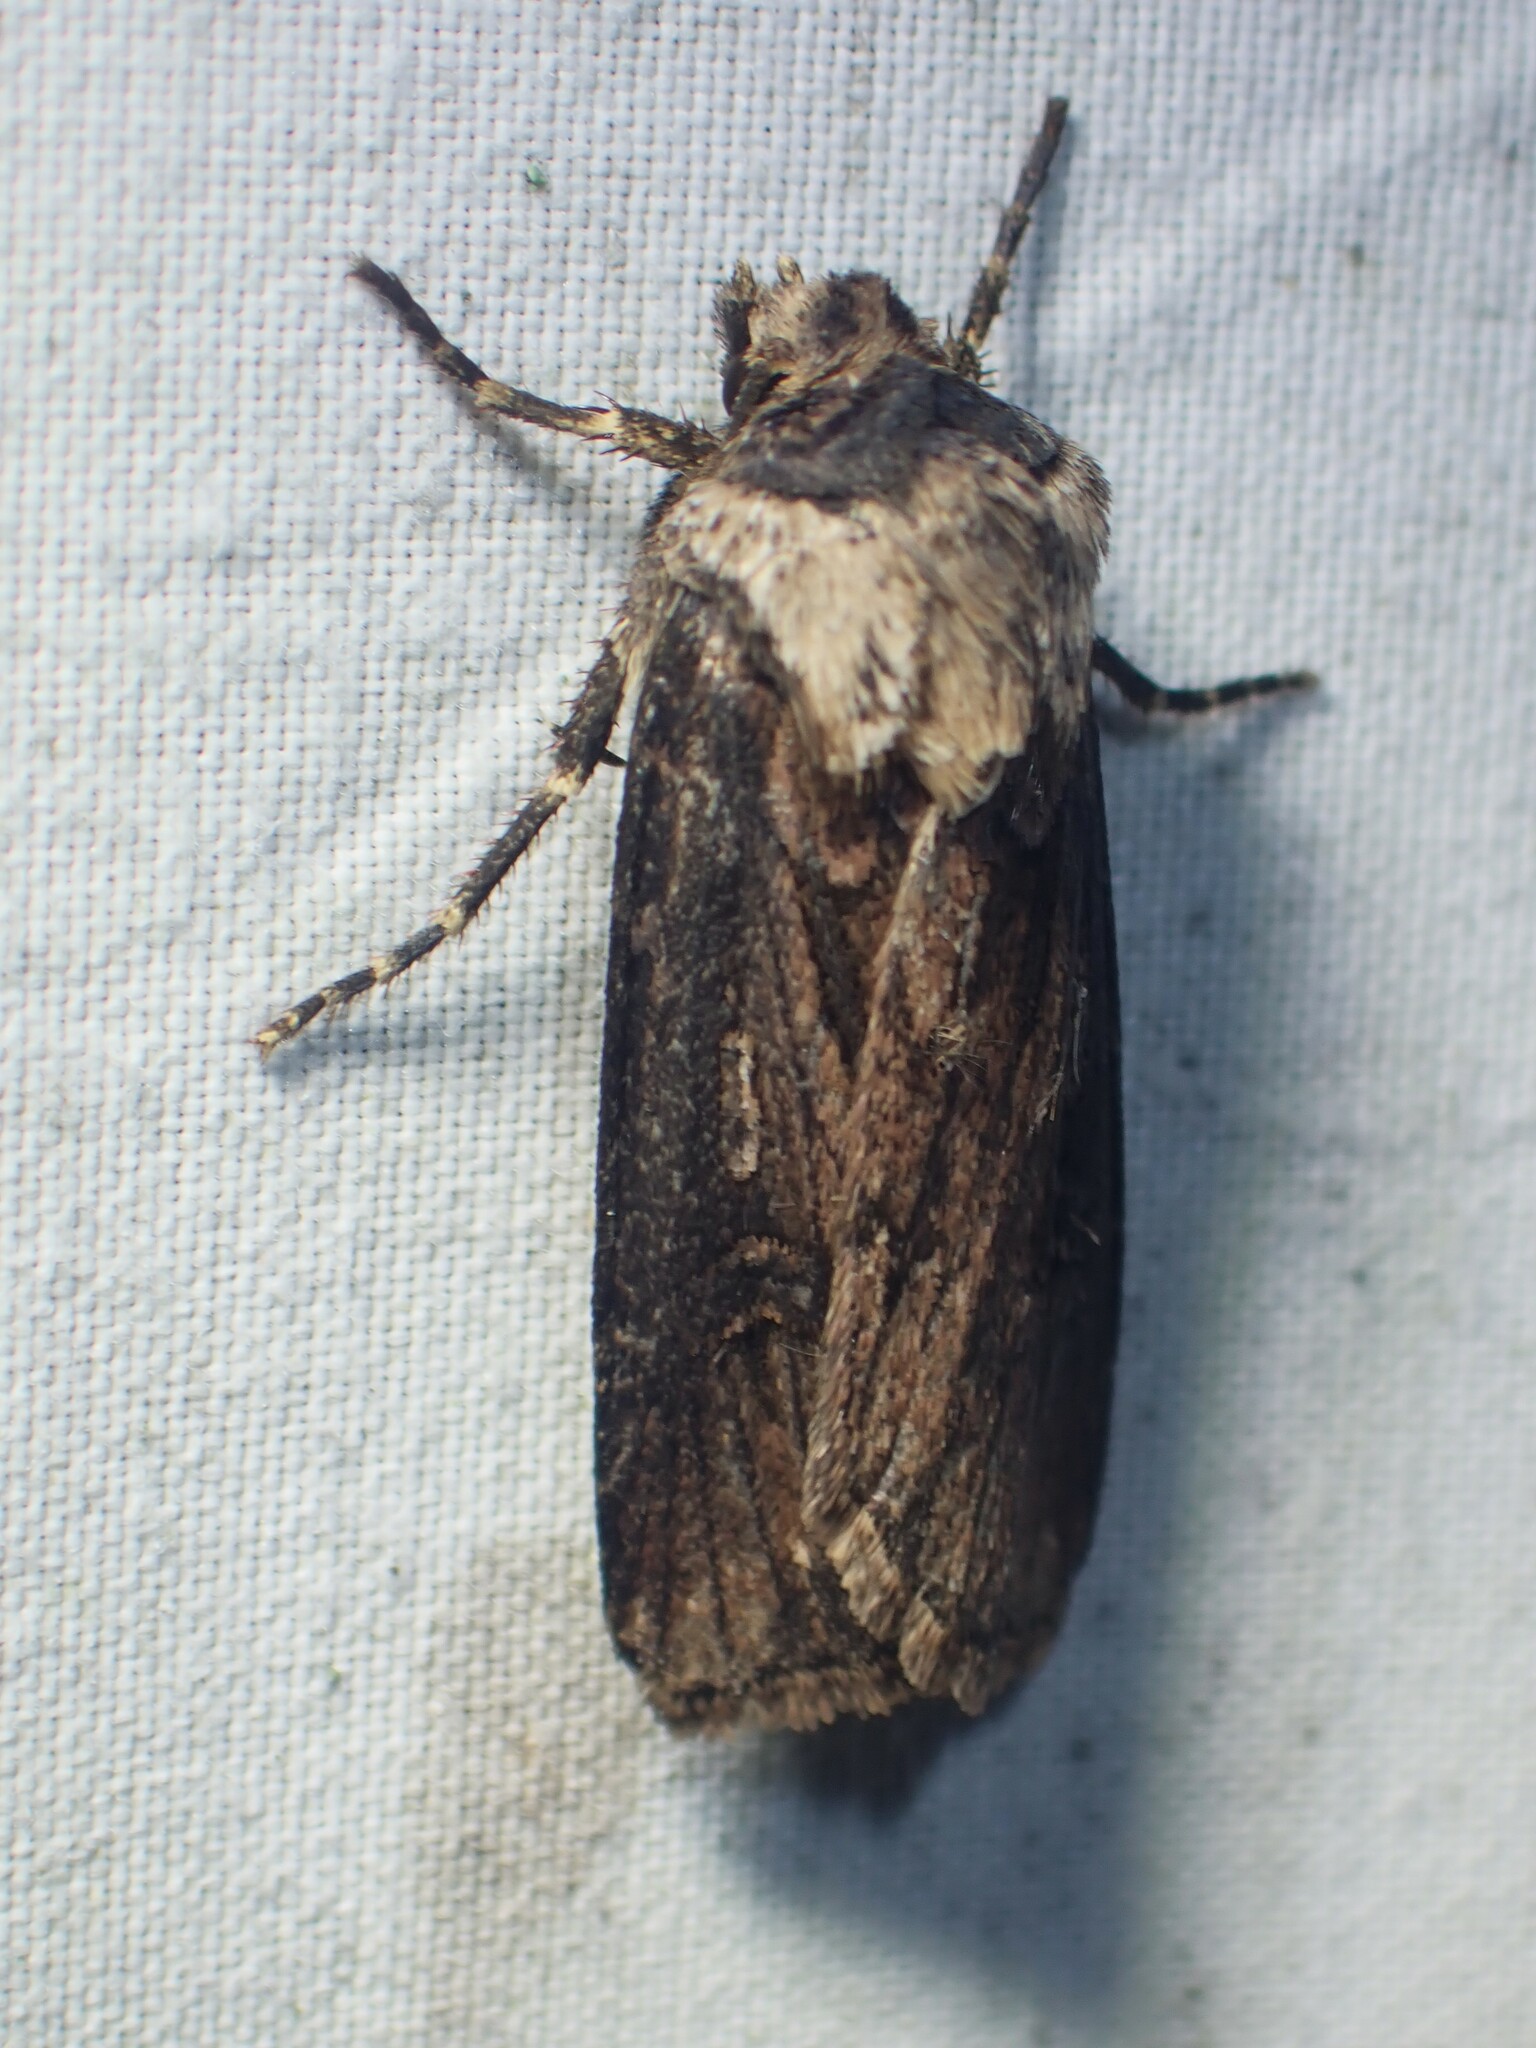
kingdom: Animalia
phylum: Arthropoda
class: Insecta
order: Lepidoptera
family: Noctuidae
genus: Agrotis
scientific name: Agrotis venerabilis
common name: Venerable dart
